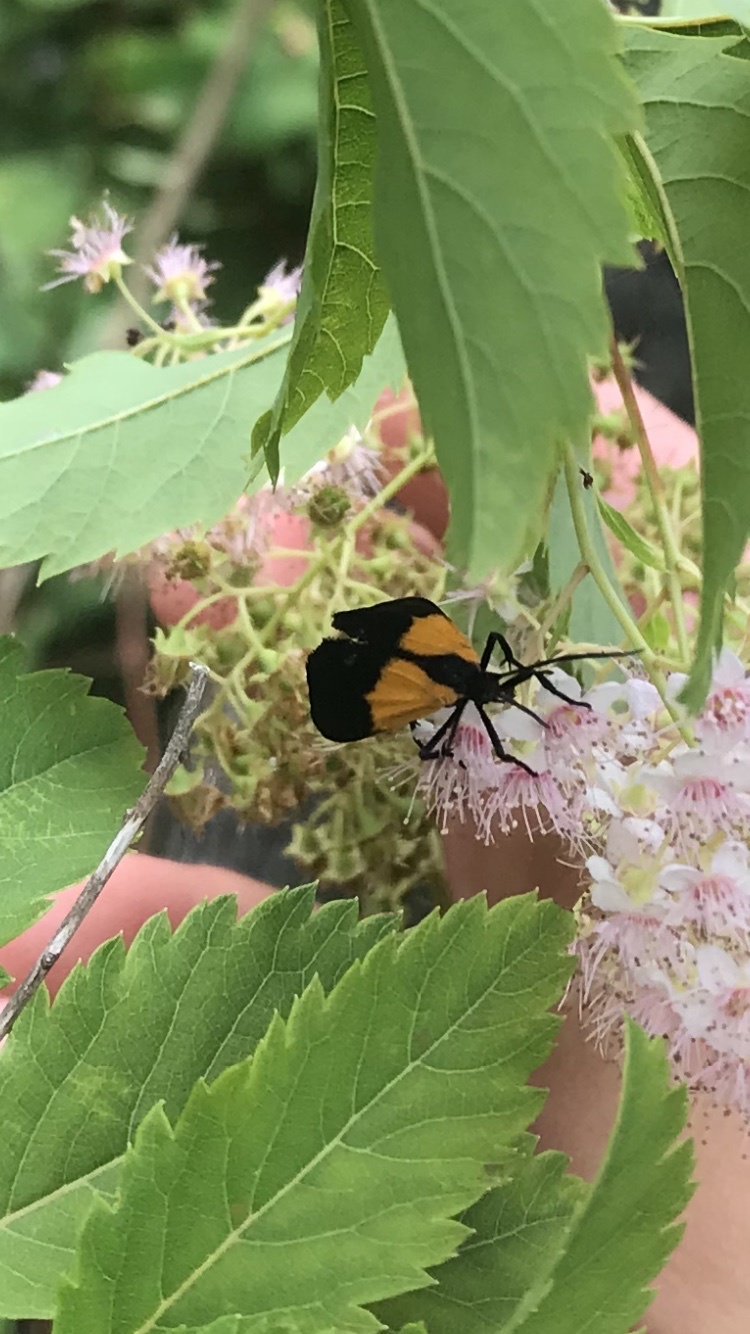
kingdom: Animalia
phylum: Arthropoda
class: Insecta
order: Lepidoptera
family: Erebidae
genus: Lycomorpha
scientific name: Lycomorpha pholus
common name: Black-and-yellow lichen moth
